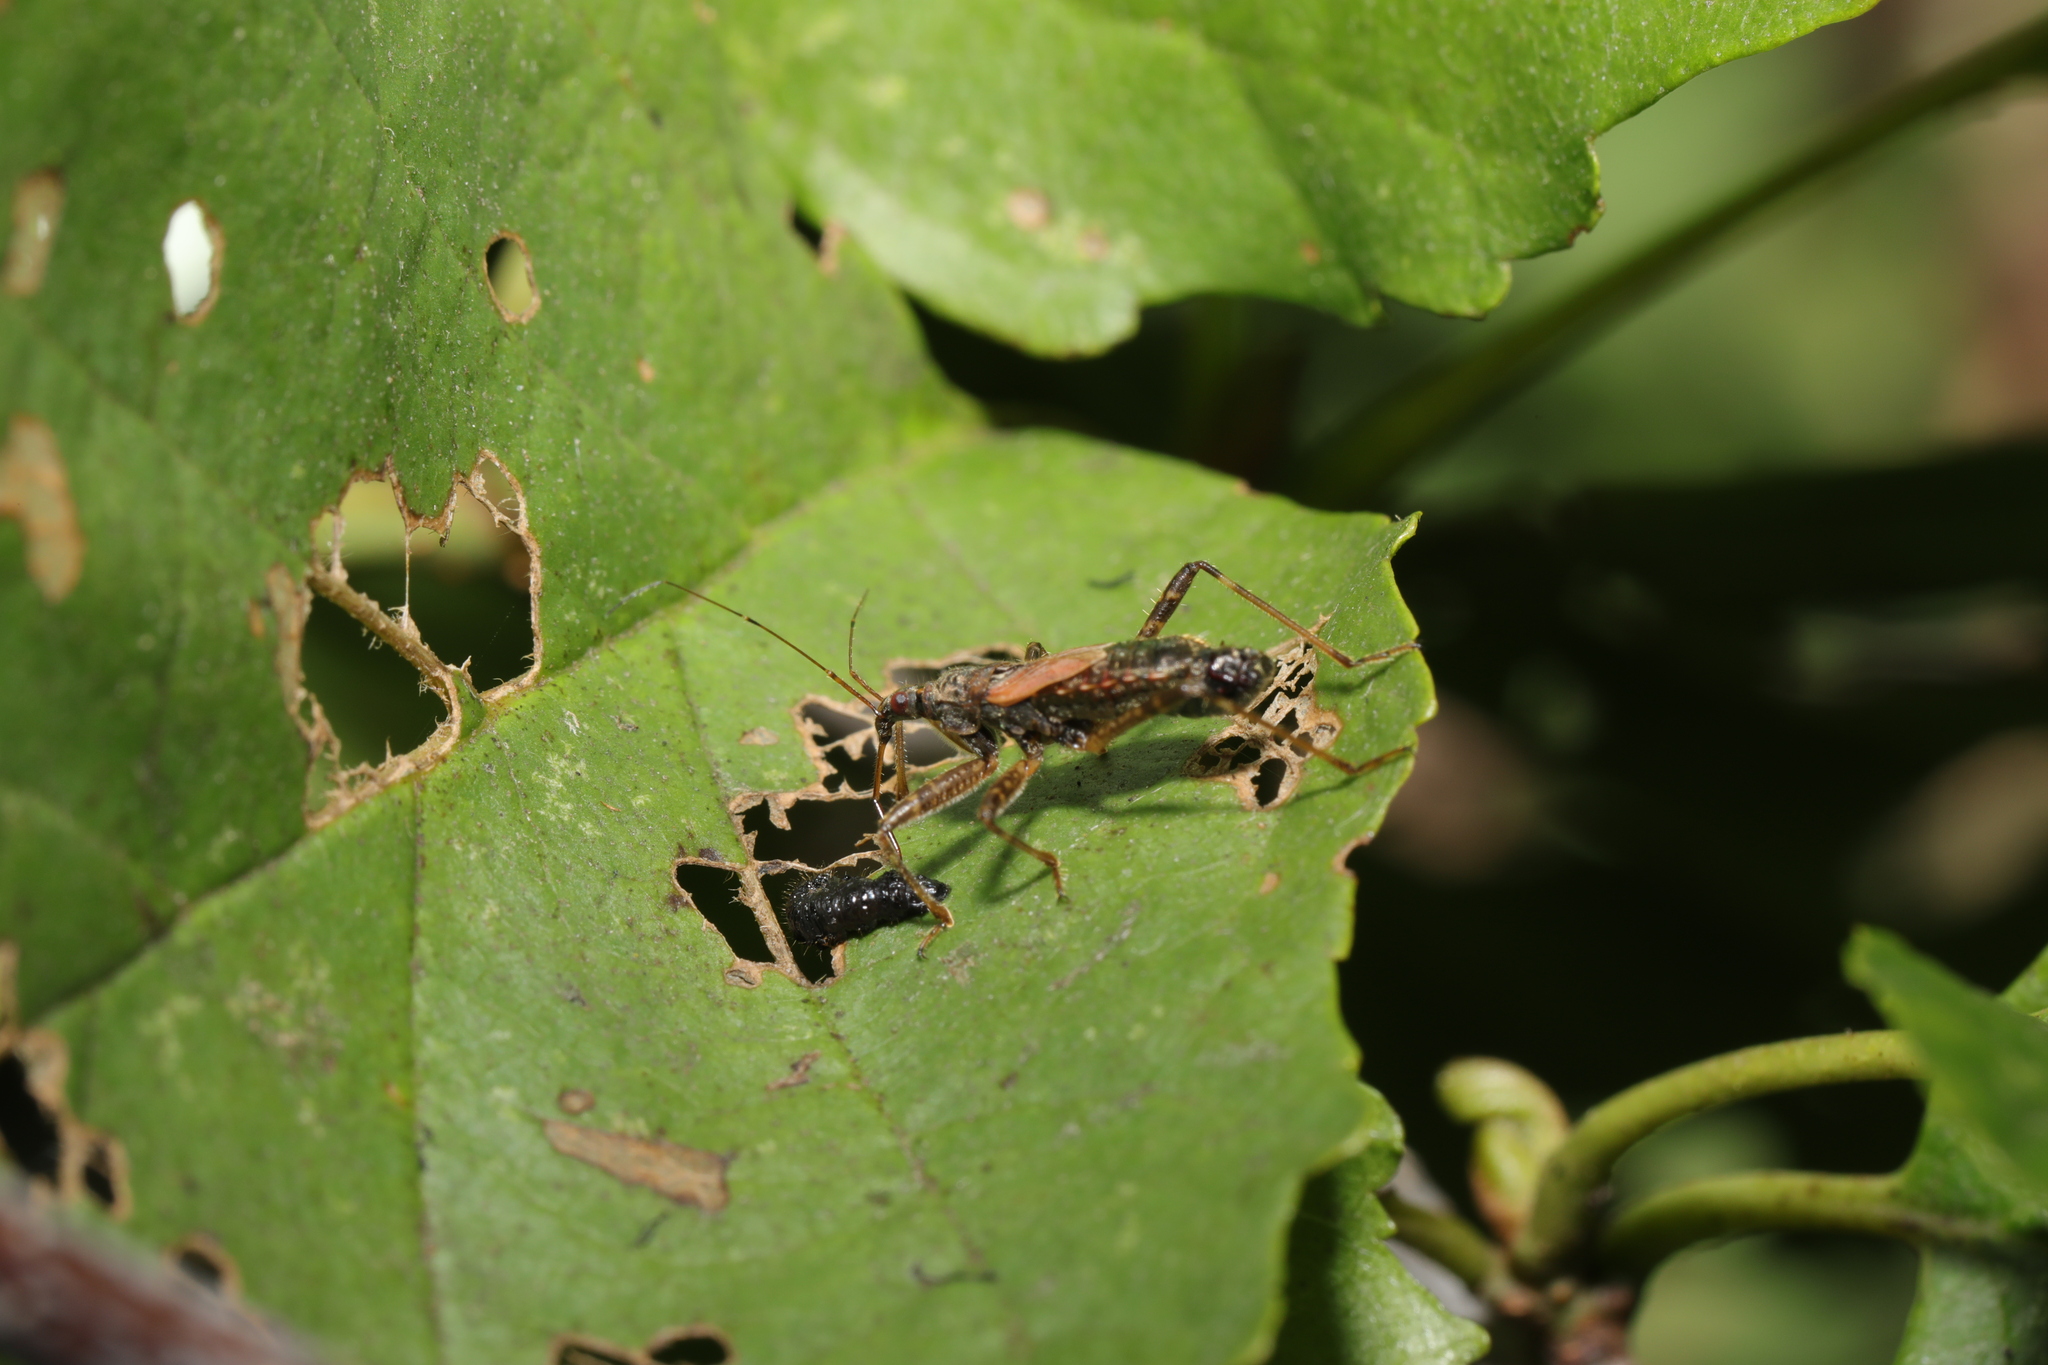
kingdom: Animalia
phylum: Arthropoda
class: Insecta
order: Hemiptera
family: Nabidae
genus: Himacerus
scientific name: Himacerus apterus
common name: Tree damsel bug
